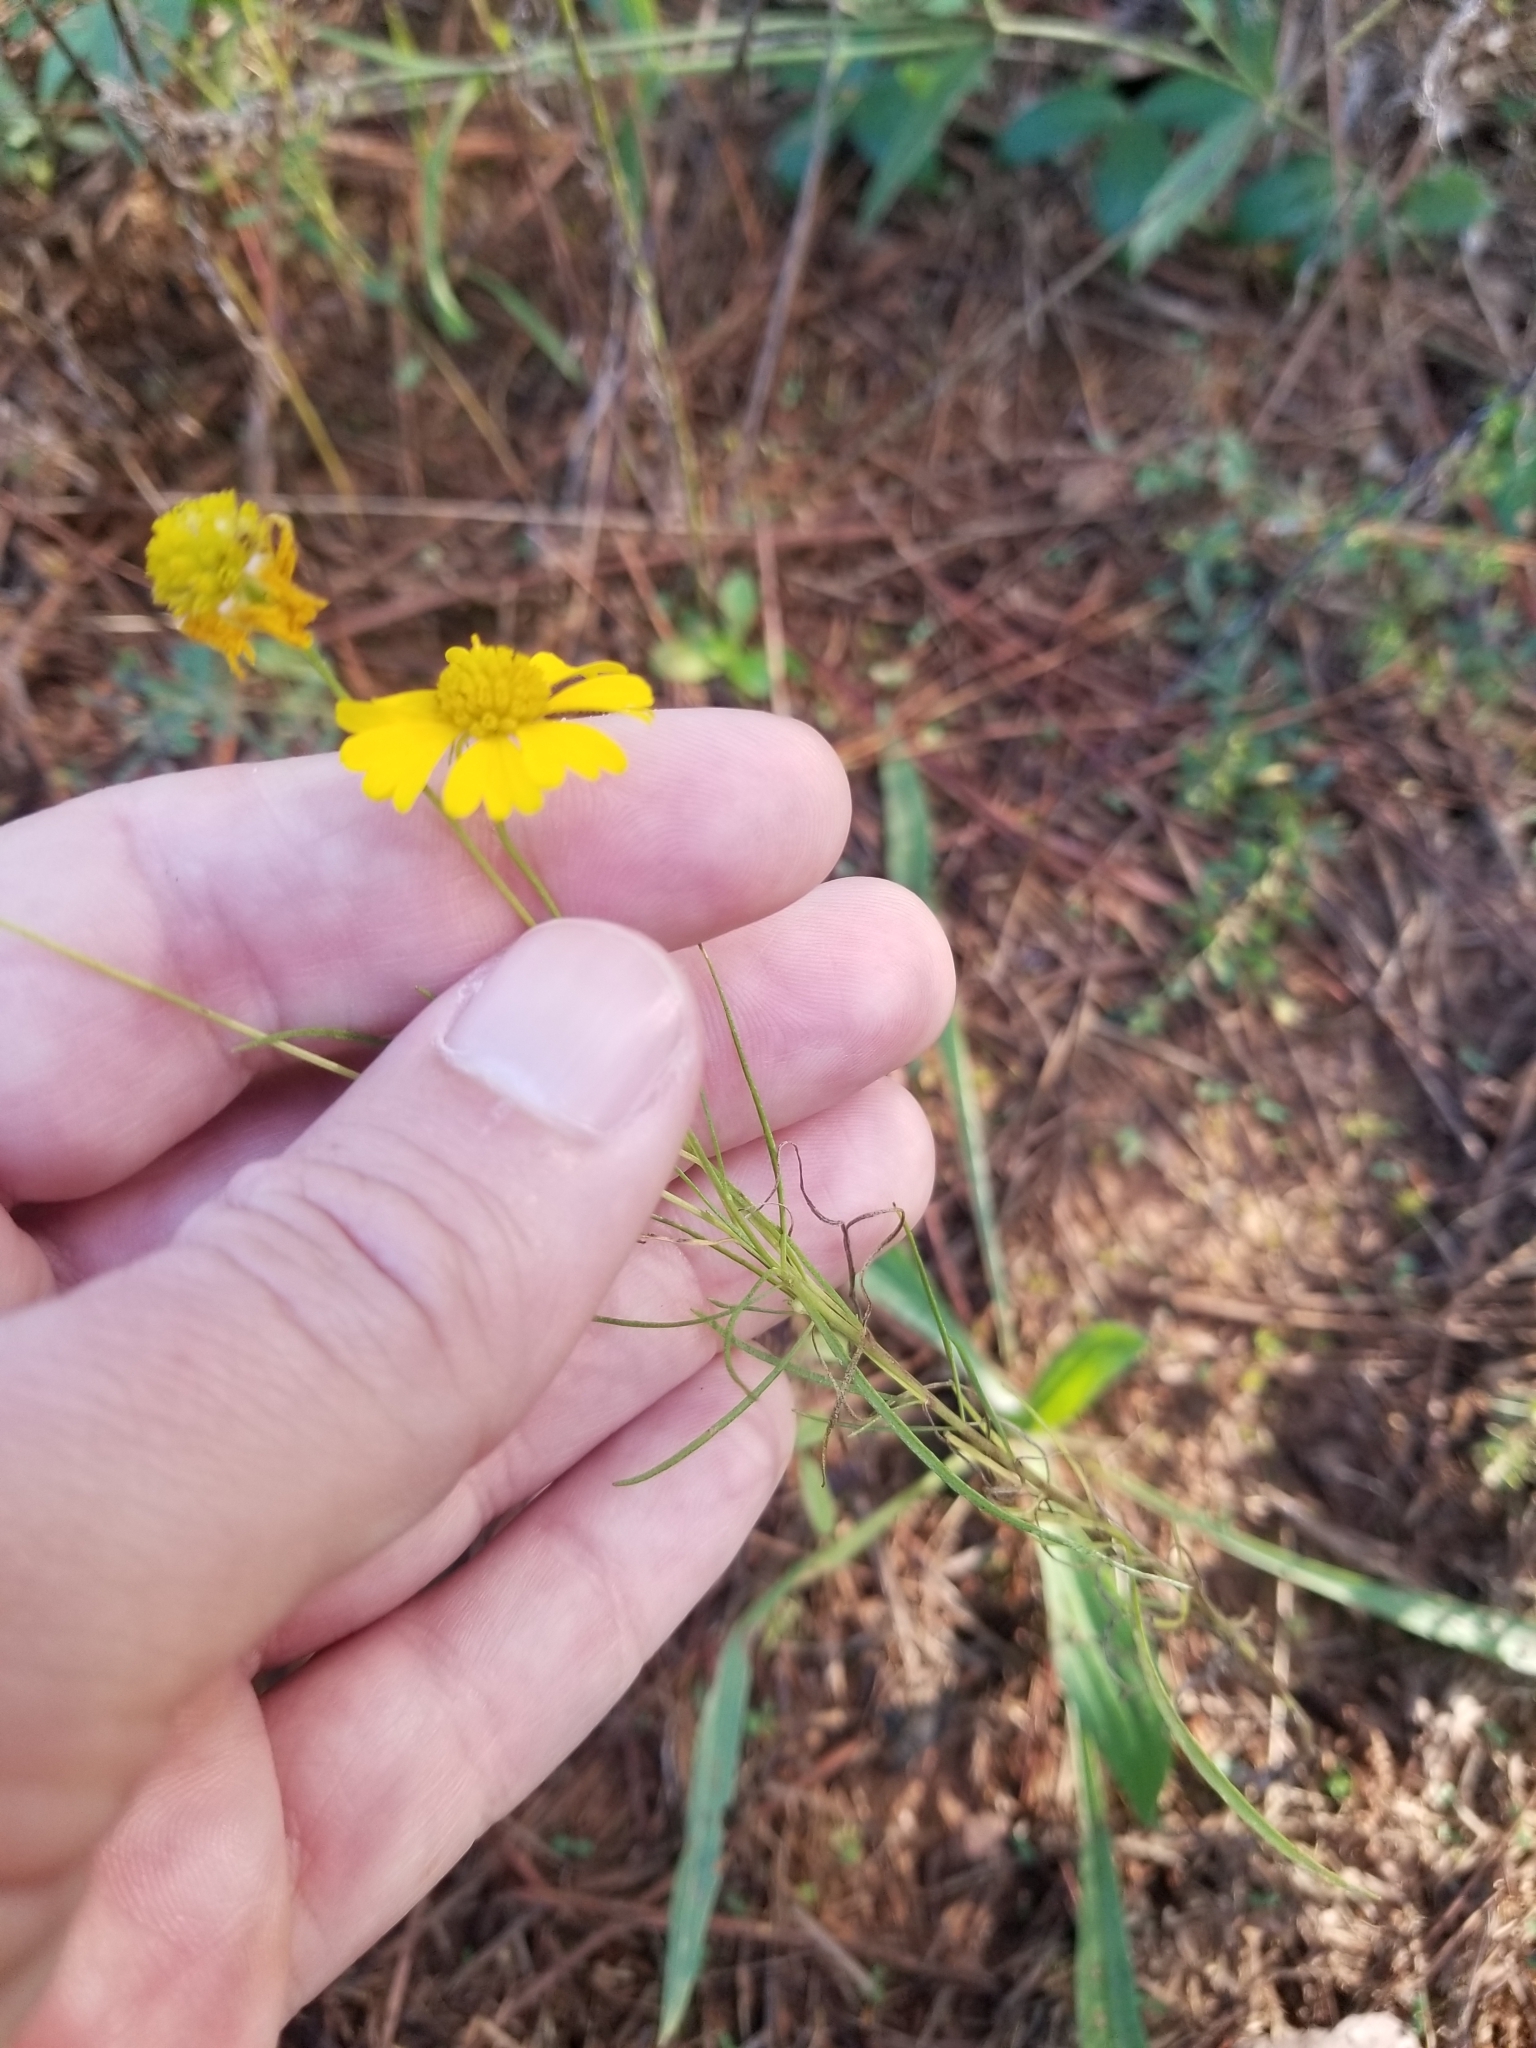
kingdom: Plantae
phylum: Tracheophyta
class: Magnoliopsida
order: Asterales
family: Asteraceae
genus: Helenium
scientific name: Helenium amarum
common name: Bitter sneezeweed
